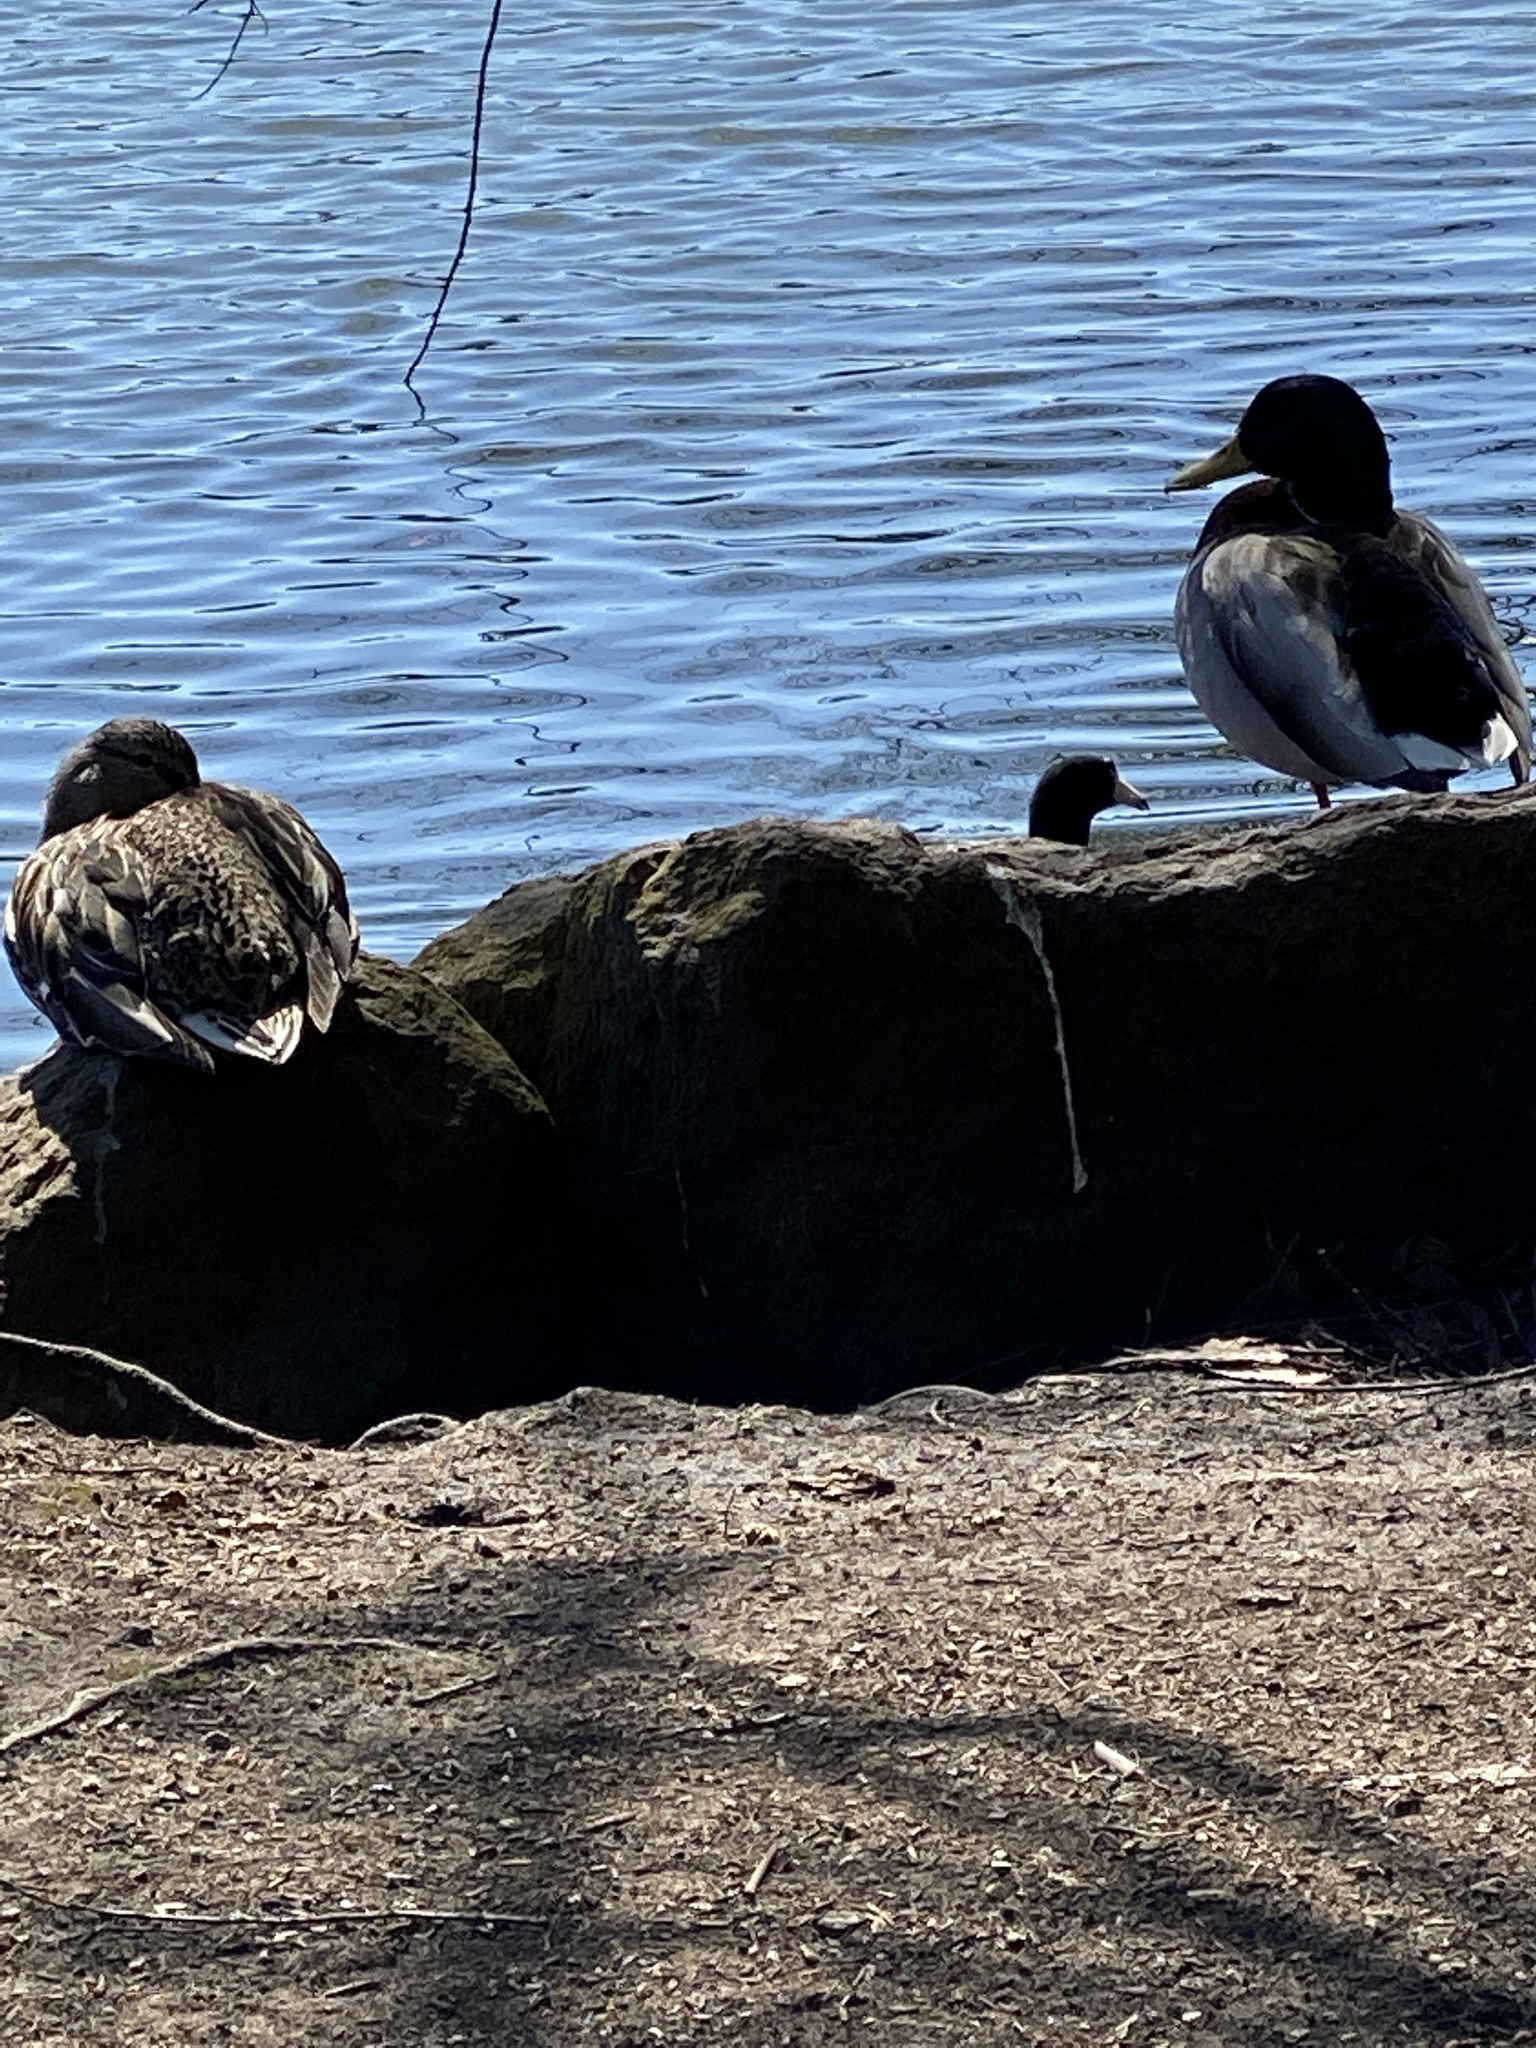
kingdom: Animalia
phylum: Chordata
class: Aves
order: Anseriformes
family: Anatidae
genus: Anas
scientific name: Anas platyrhynchos
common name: Mallard
